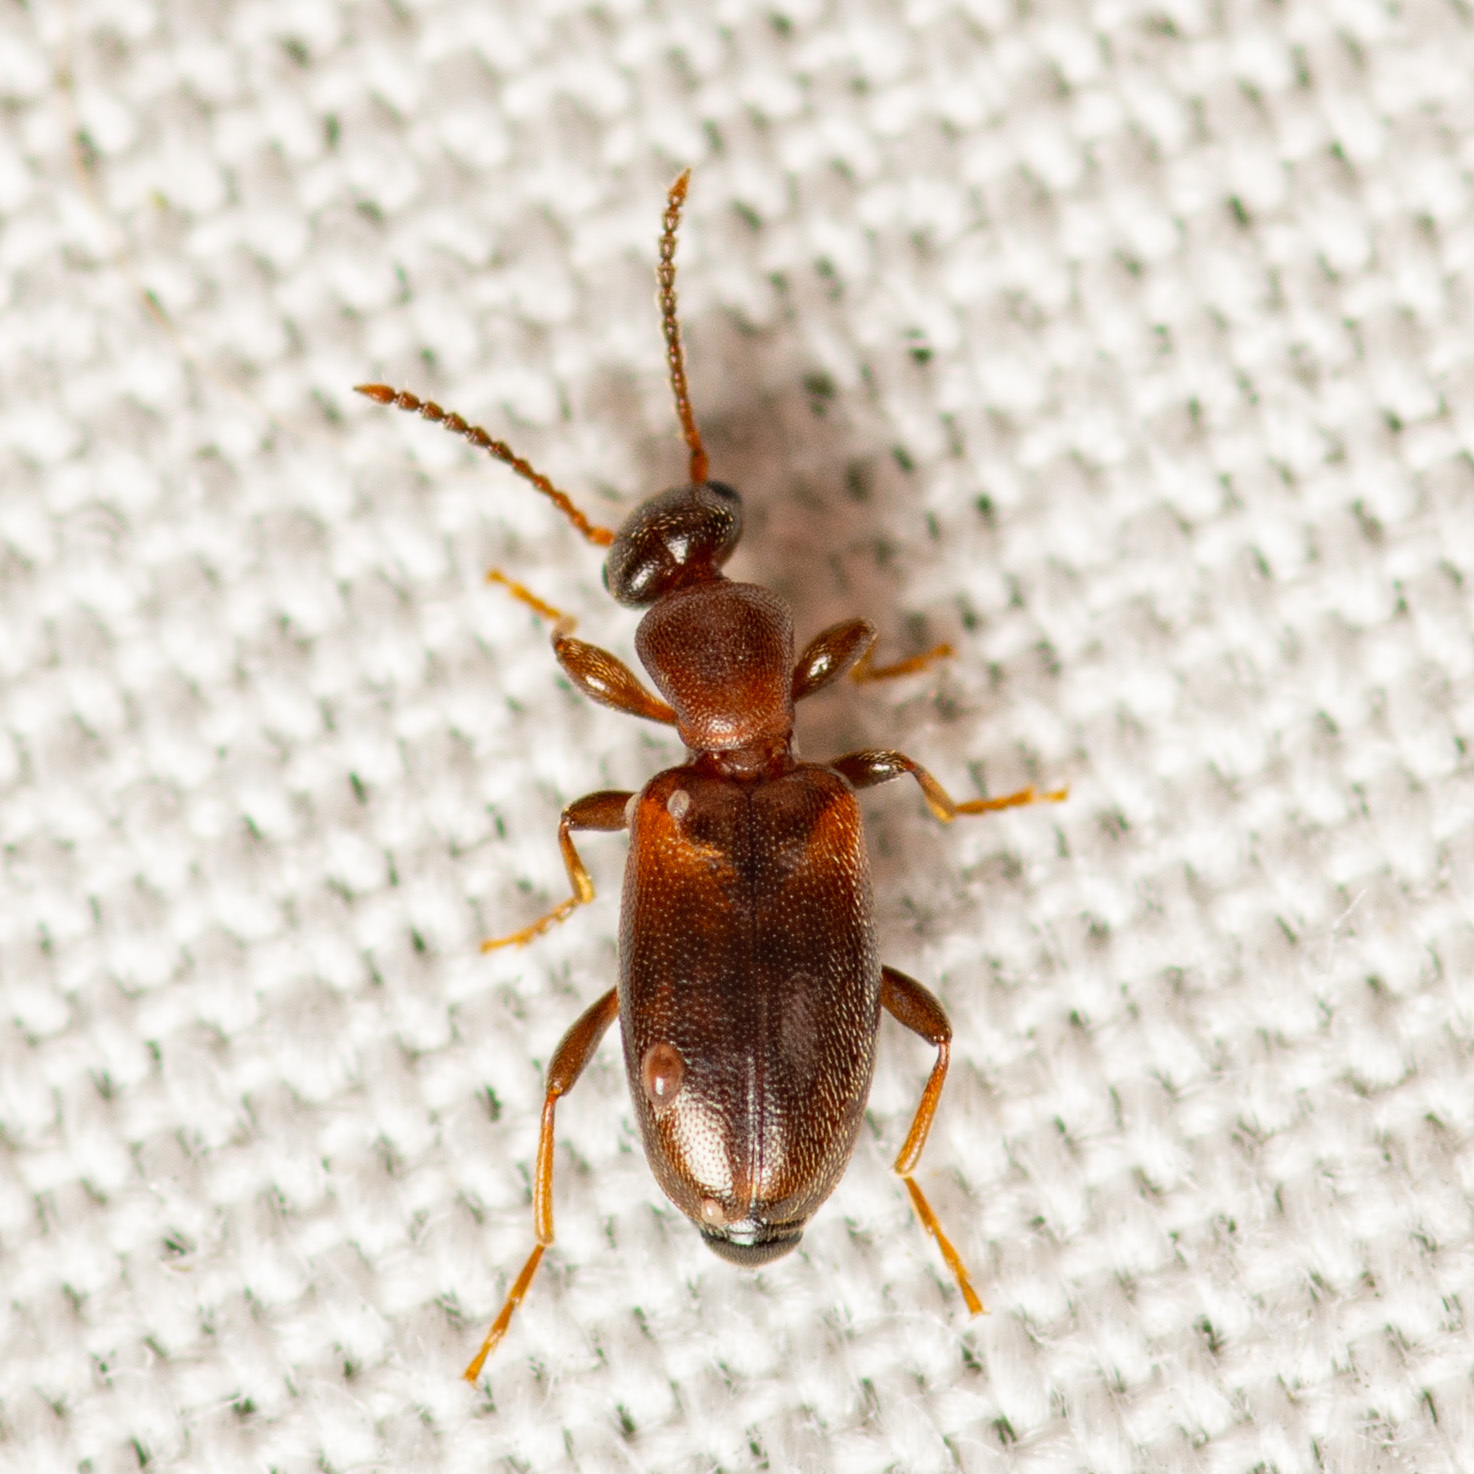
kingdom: Animalia
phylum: Arthropoda
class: Insecta
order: Coleoptera
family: Anthicidae
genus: Omonadus
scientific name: Omonadus floralis
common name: Narrownecked grain beetle
